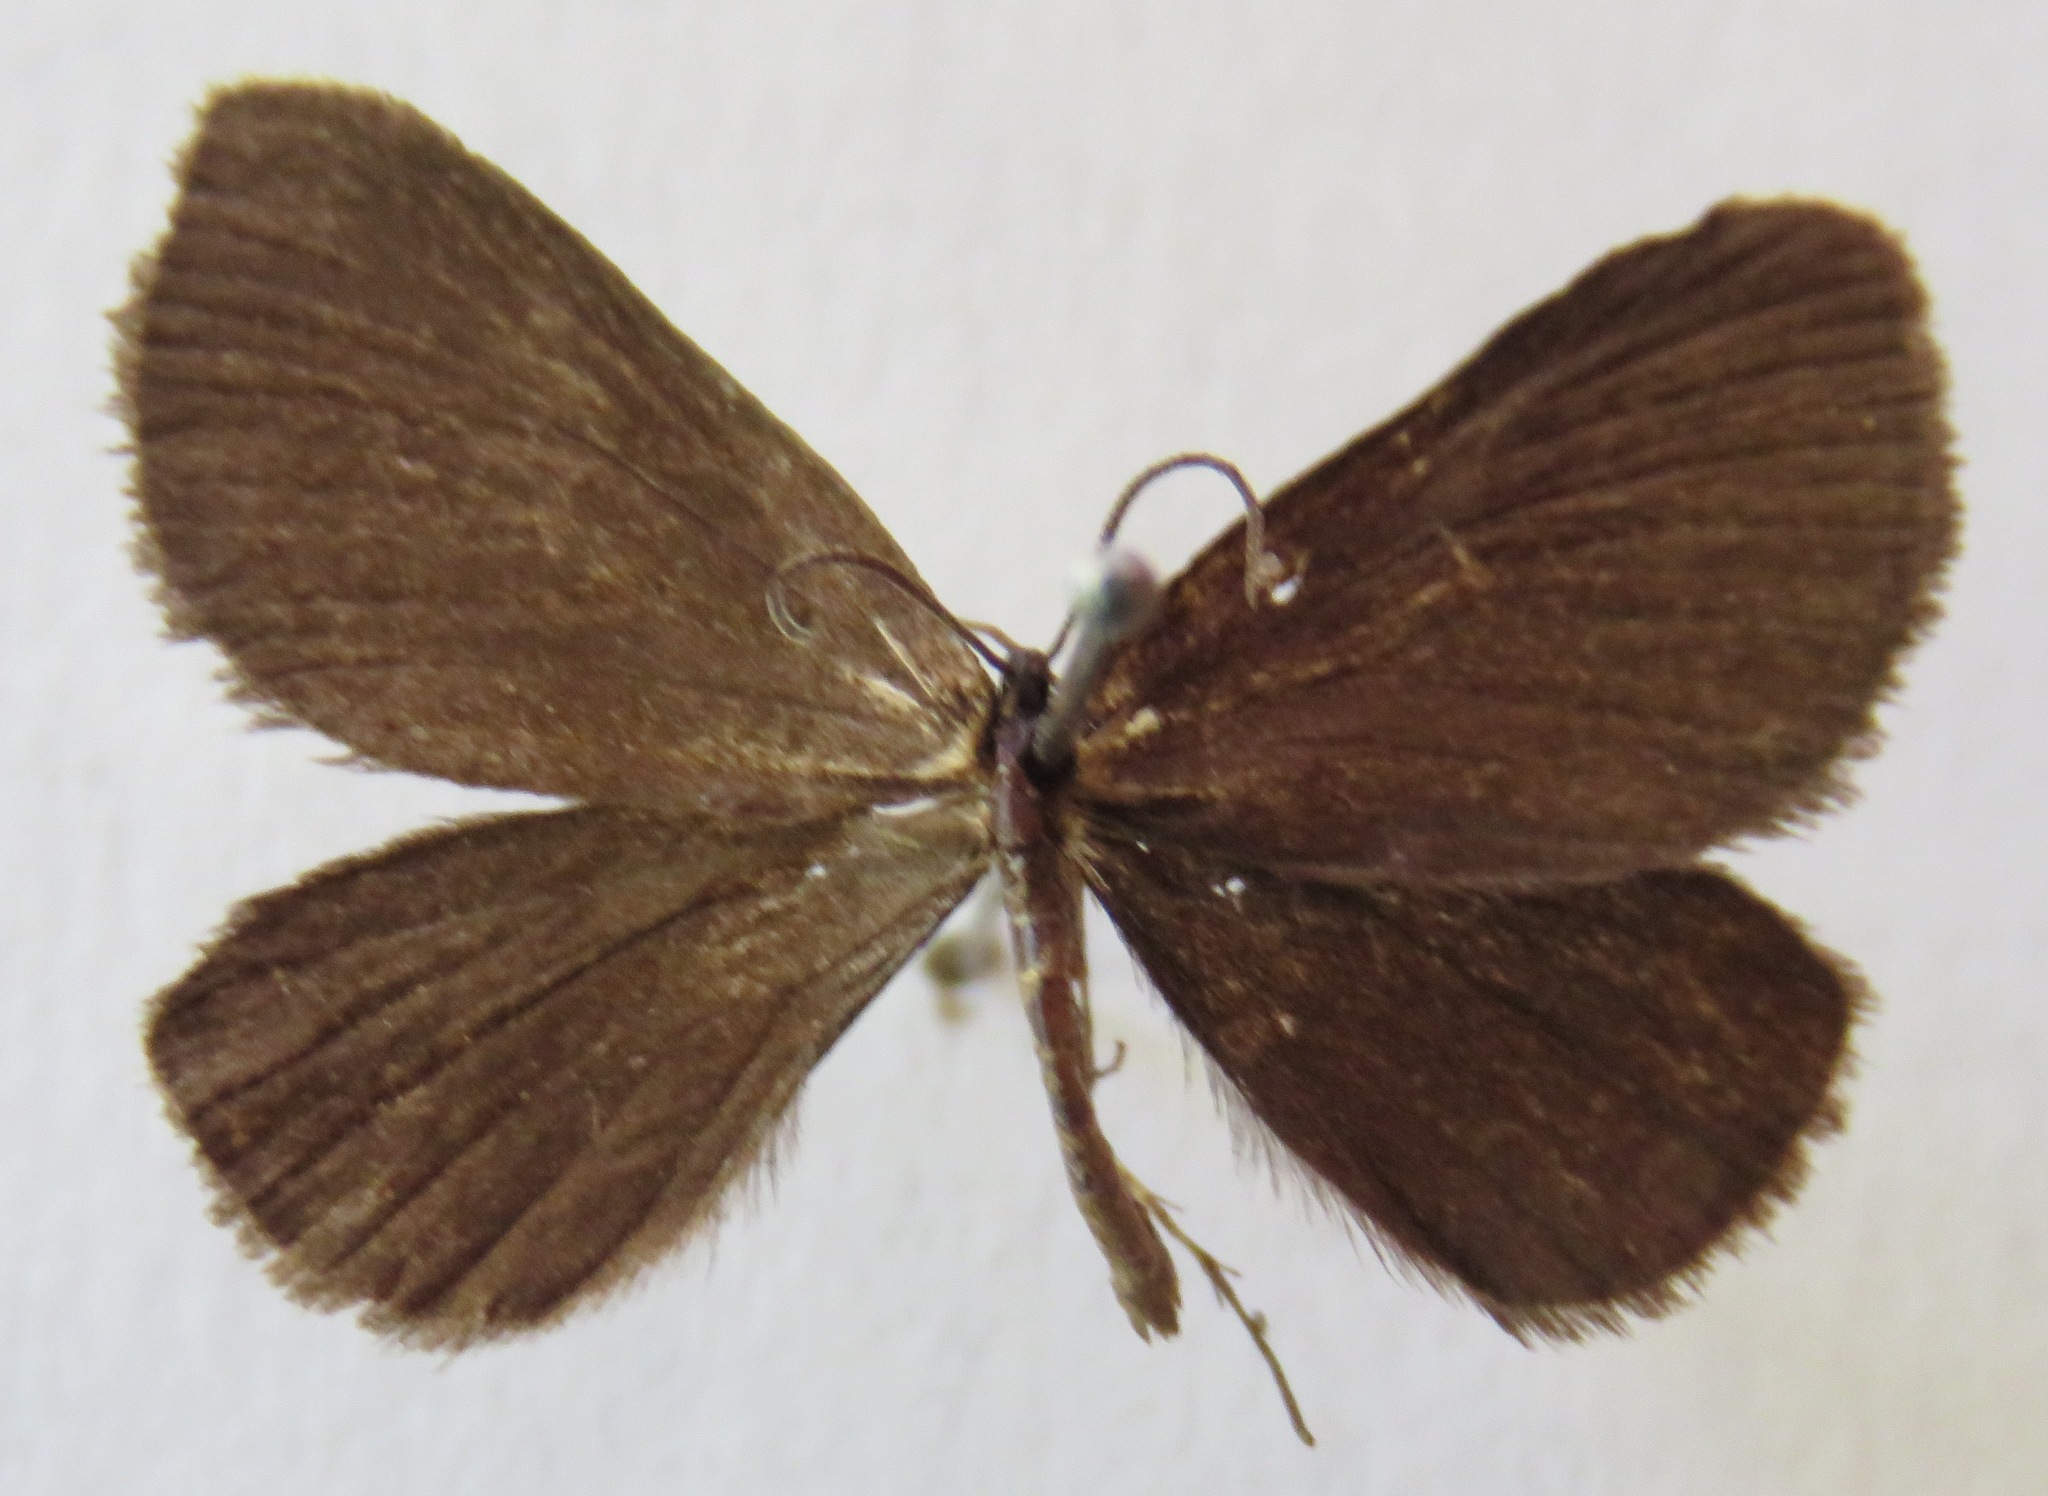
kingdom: Animalia
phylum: Arthropoda
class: Insecta
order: Lepidoptera
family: Geometridae
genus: Odezia
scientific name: Odezia atrata
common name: Chimney sweeper
